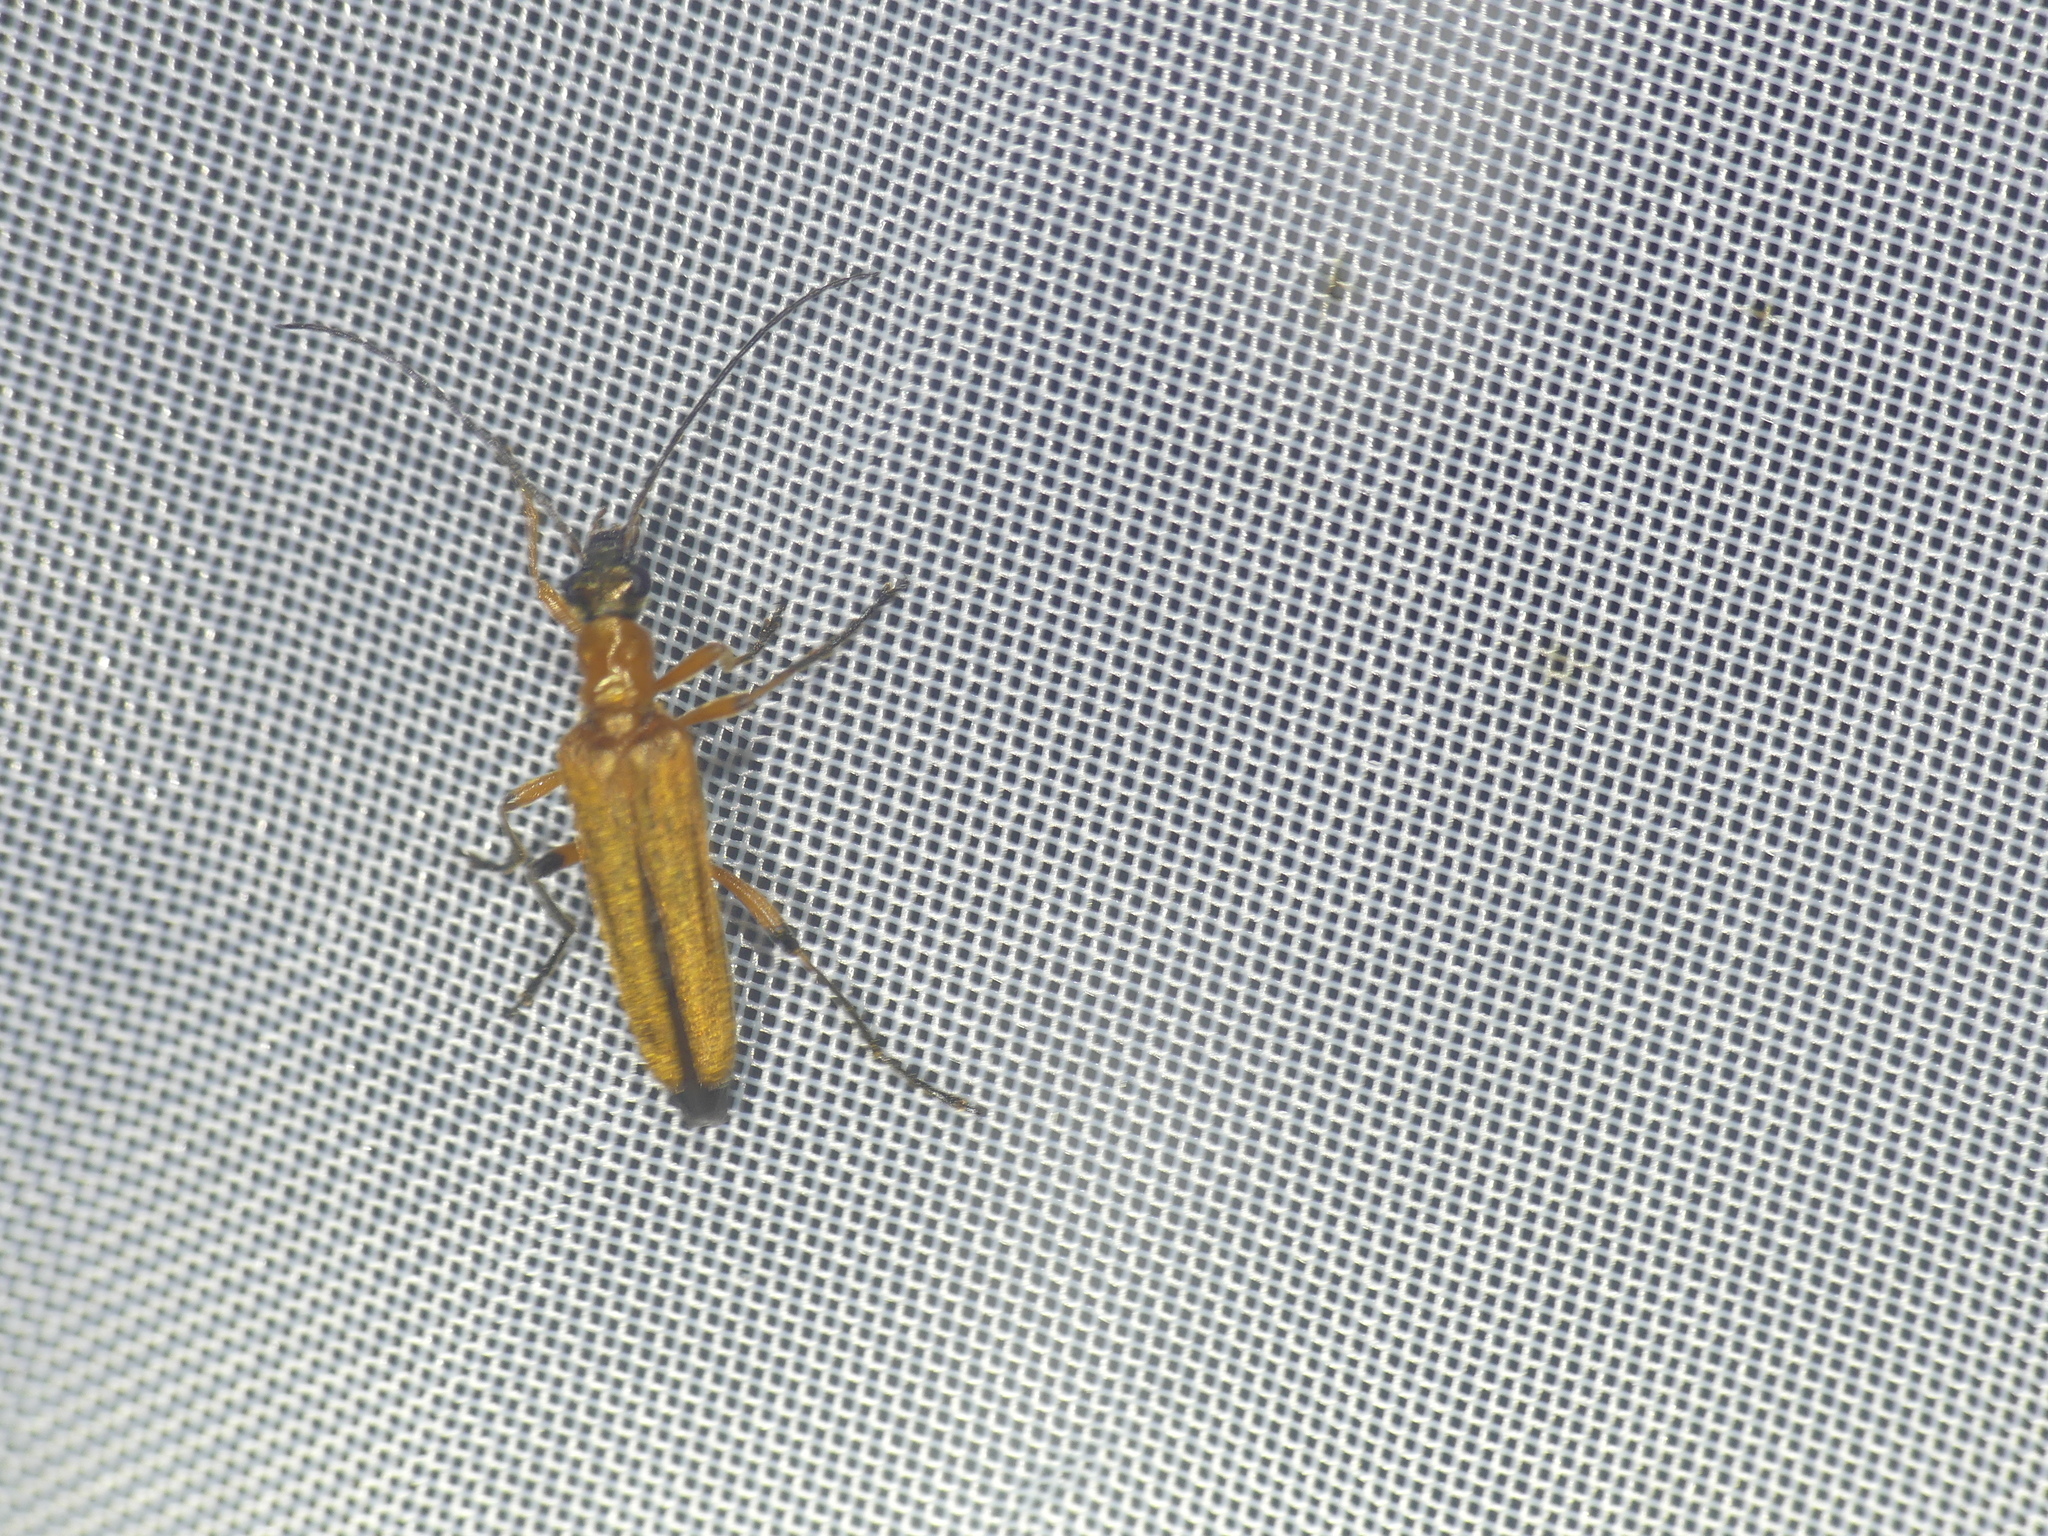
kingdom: Animalia
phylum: Arthropoda
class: Insecta
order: Coleoptera
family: Oedemeridae
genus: Oedemera
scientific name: Oedemera podagrariae
